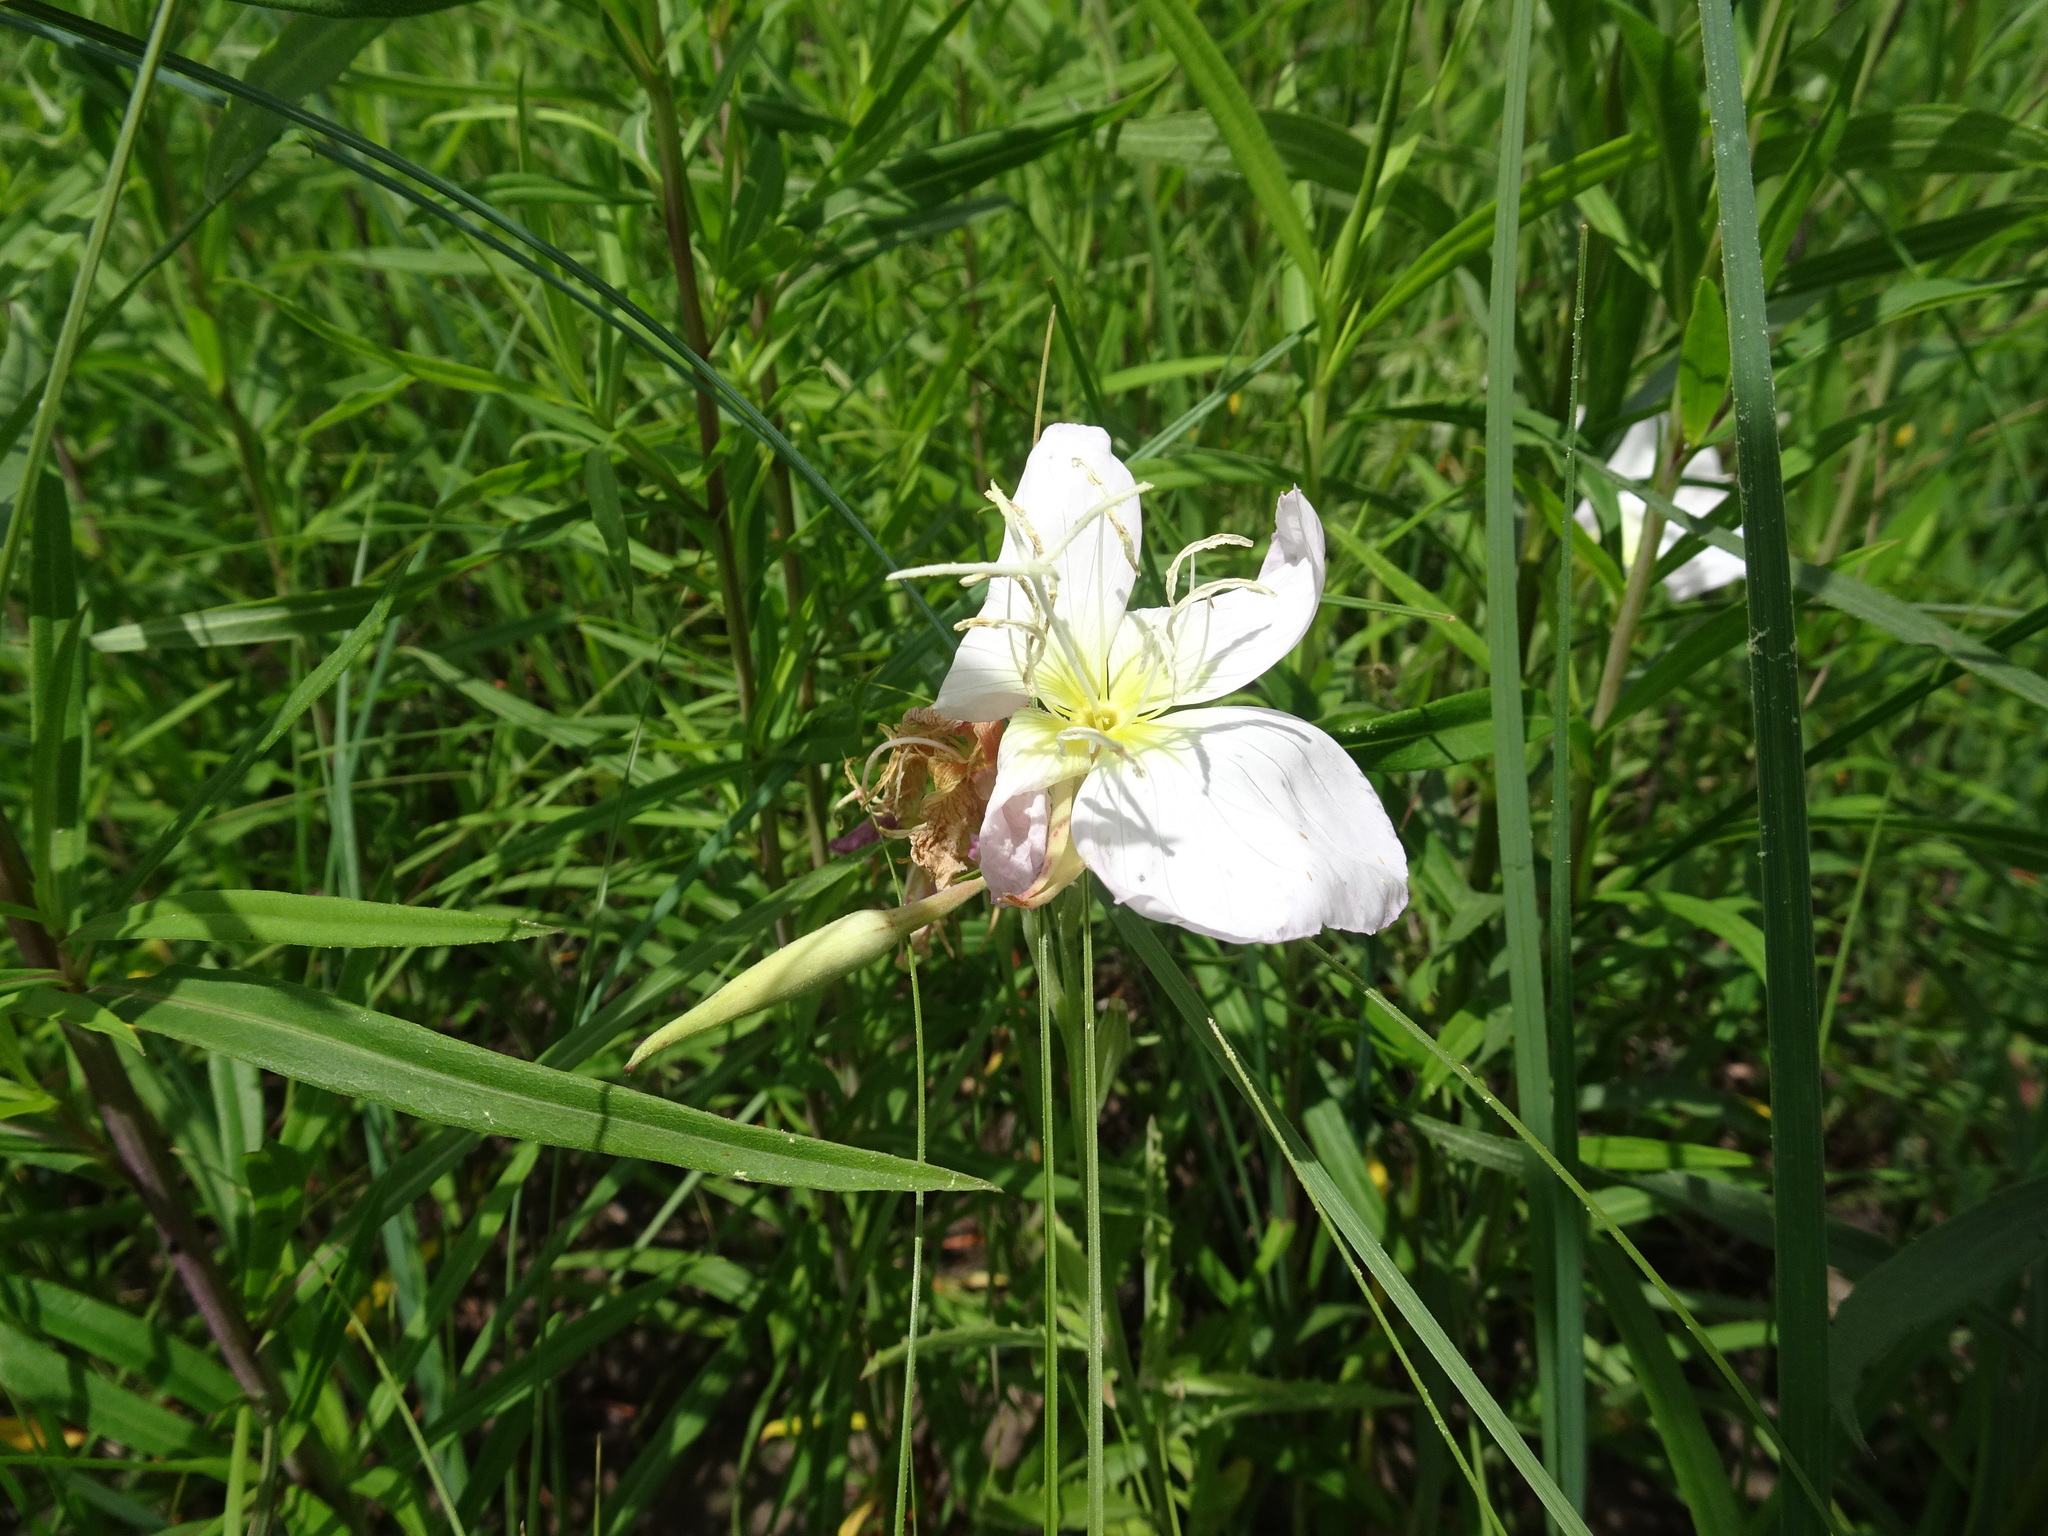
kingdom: Plantae
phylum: Tracheophyta
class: Magnoliopsida
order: Myrtales
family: Onagraceae
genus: Oenothera
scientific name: Oenothera speciosa
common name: White evening-primrose
